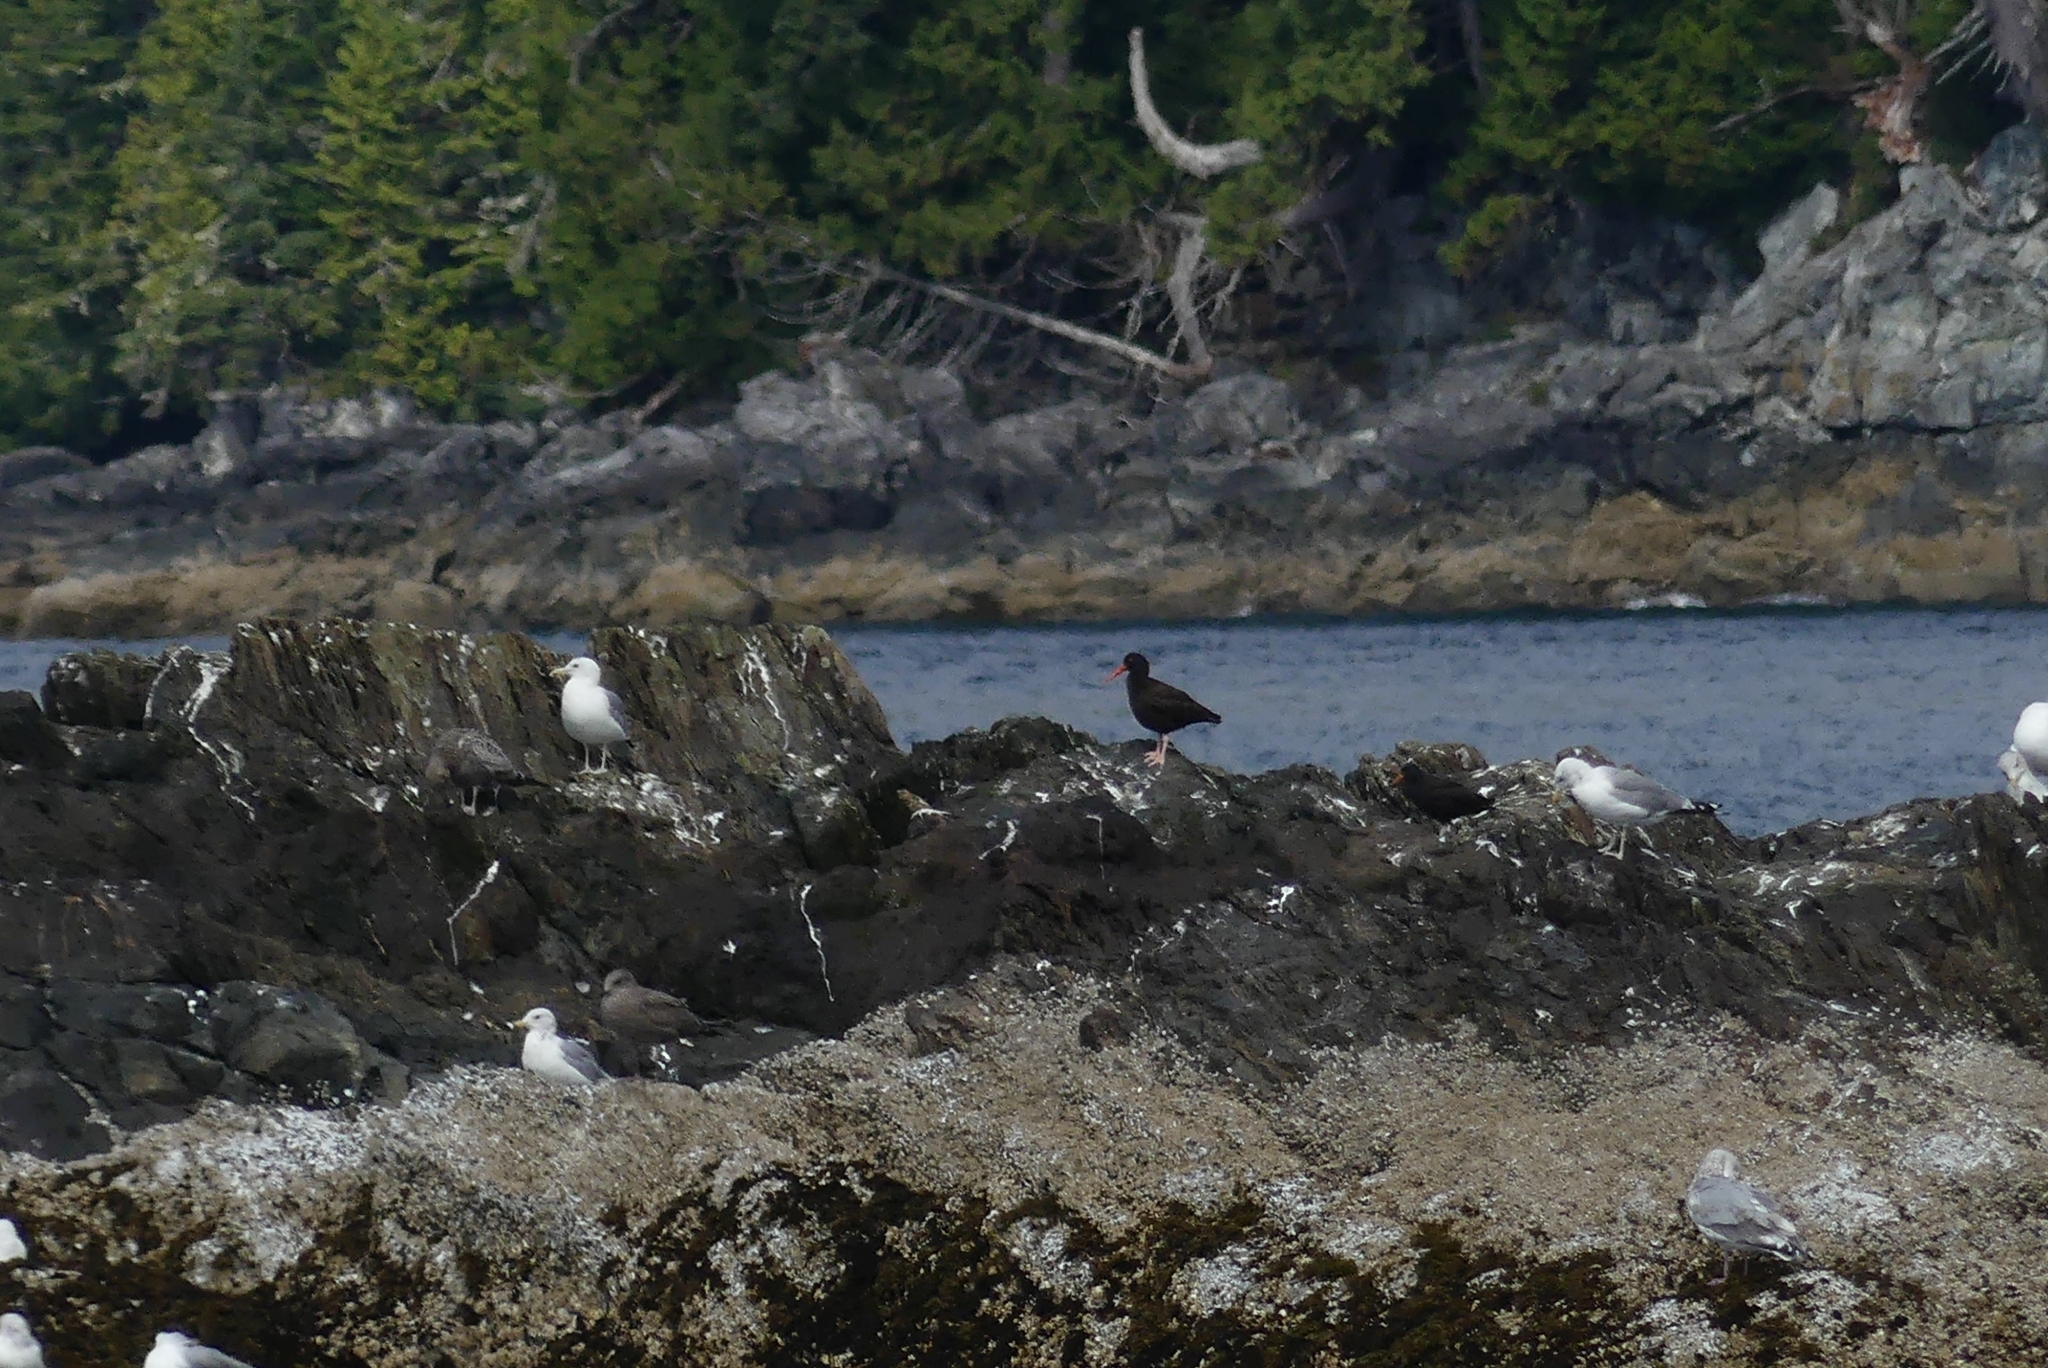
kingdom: Animalia
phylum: Chordata
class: Aves
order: Charadriiformes
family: Haematopodidae
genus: Haematopus
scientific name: Haematopus bachmani
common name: Black oystercatcher
